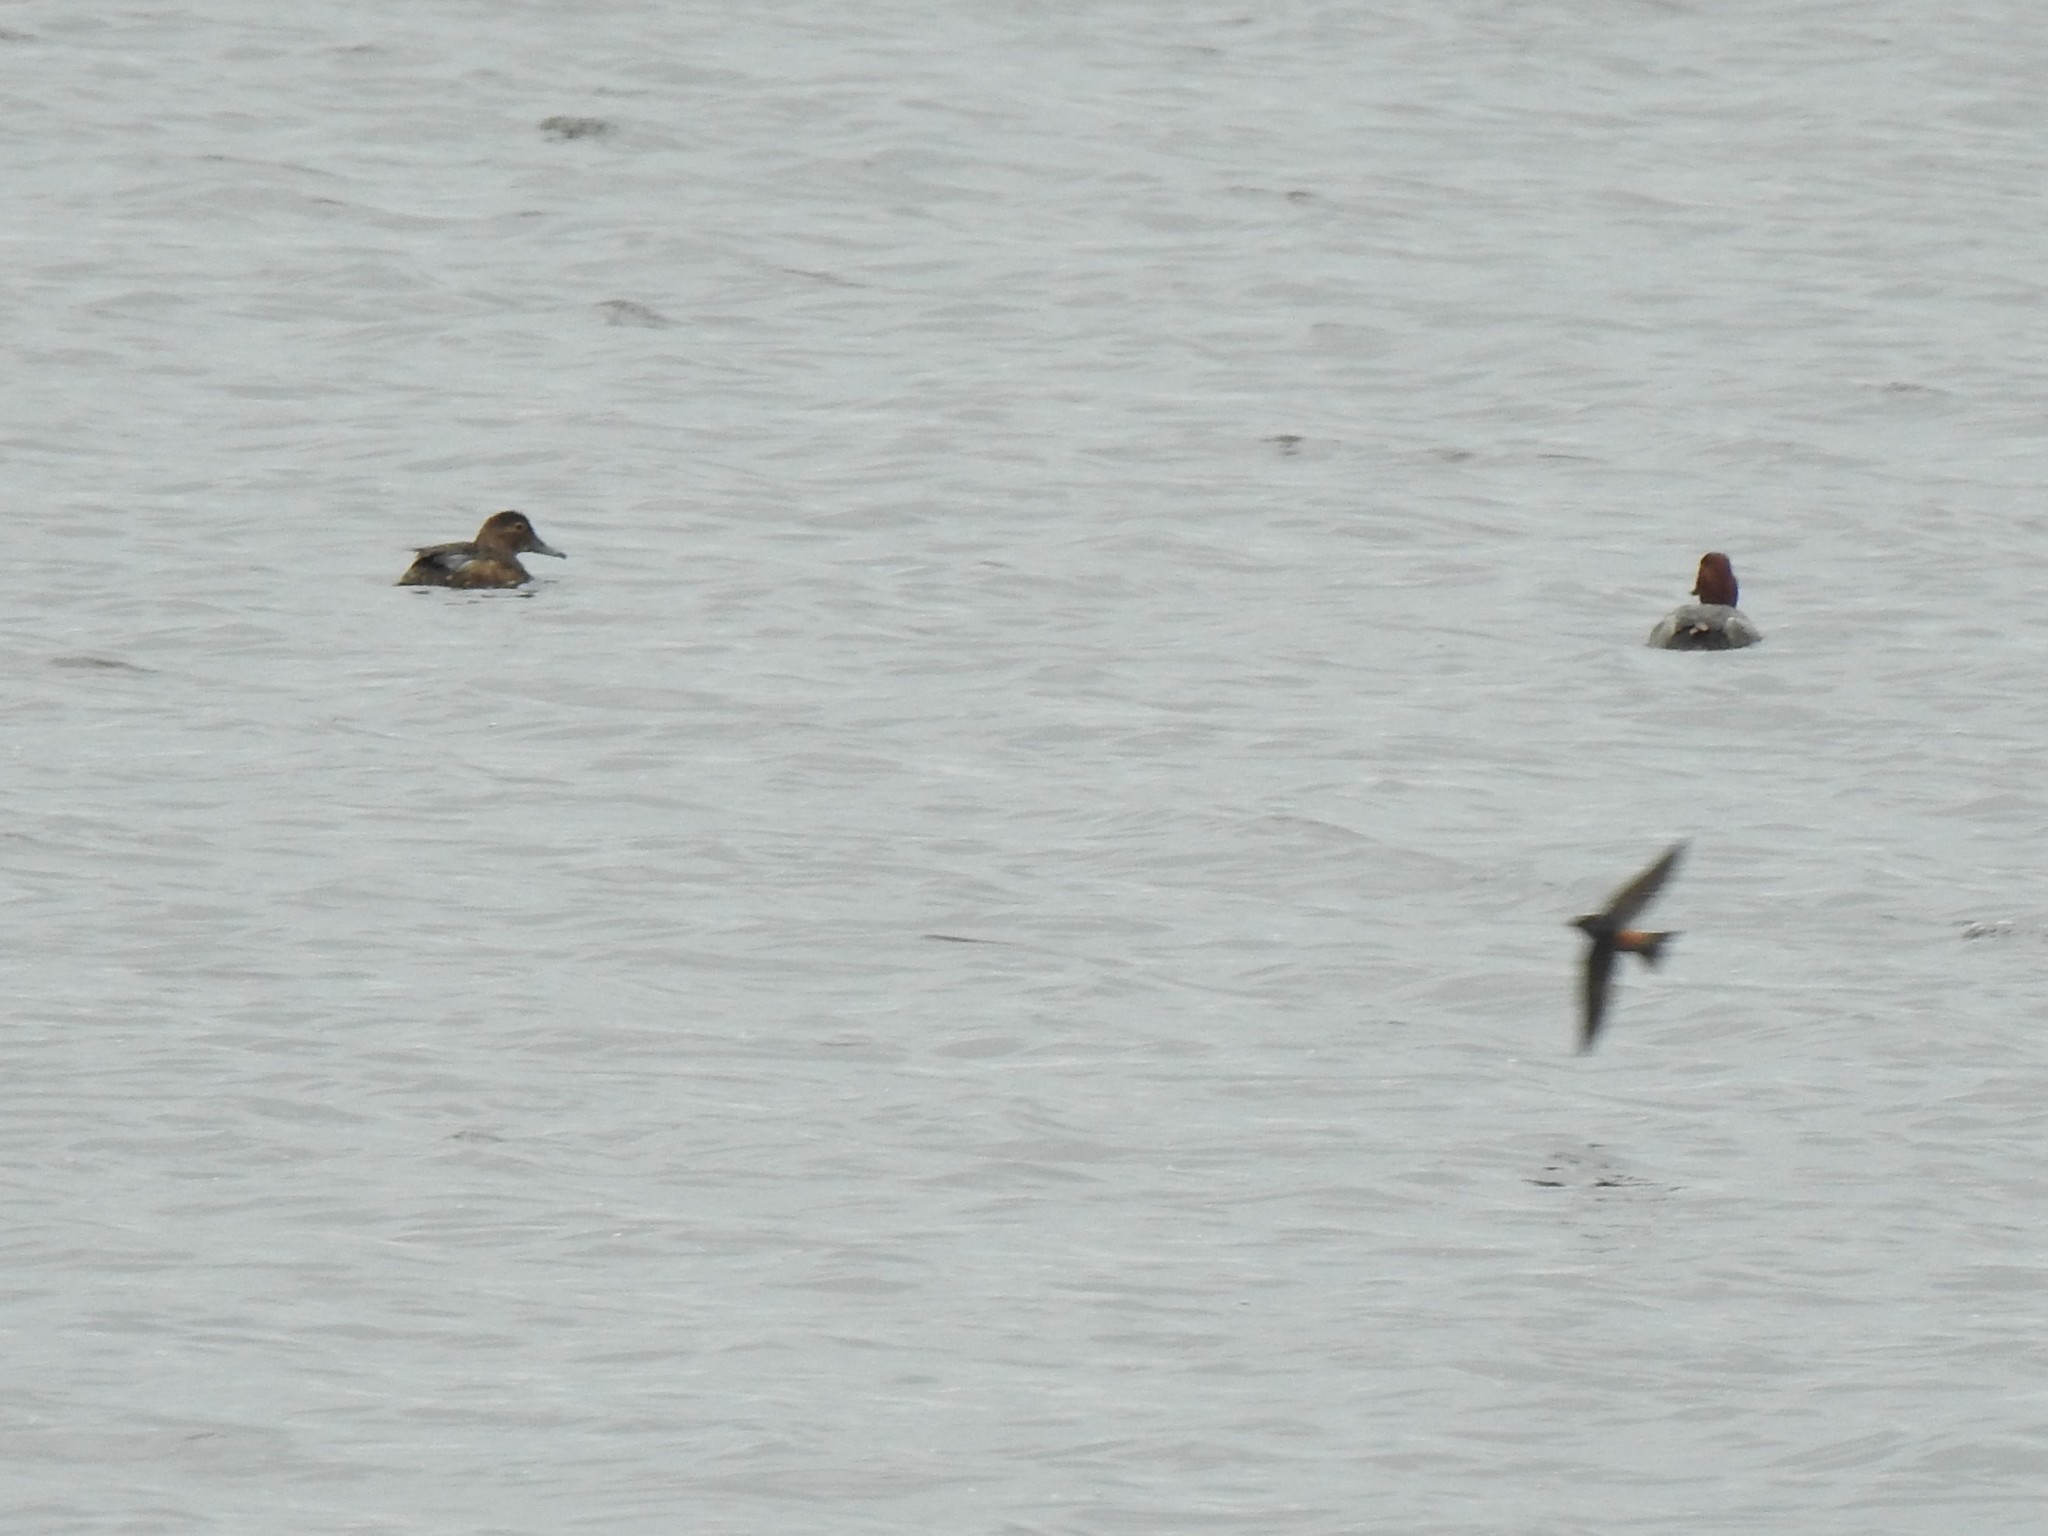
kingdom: Animalia
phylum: Chordata
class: Aves
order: Passeriformes
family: Hirundinidae
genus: Petrochelidon
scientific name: Petrochelidon pyrrhonota
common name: American cliff swallow
